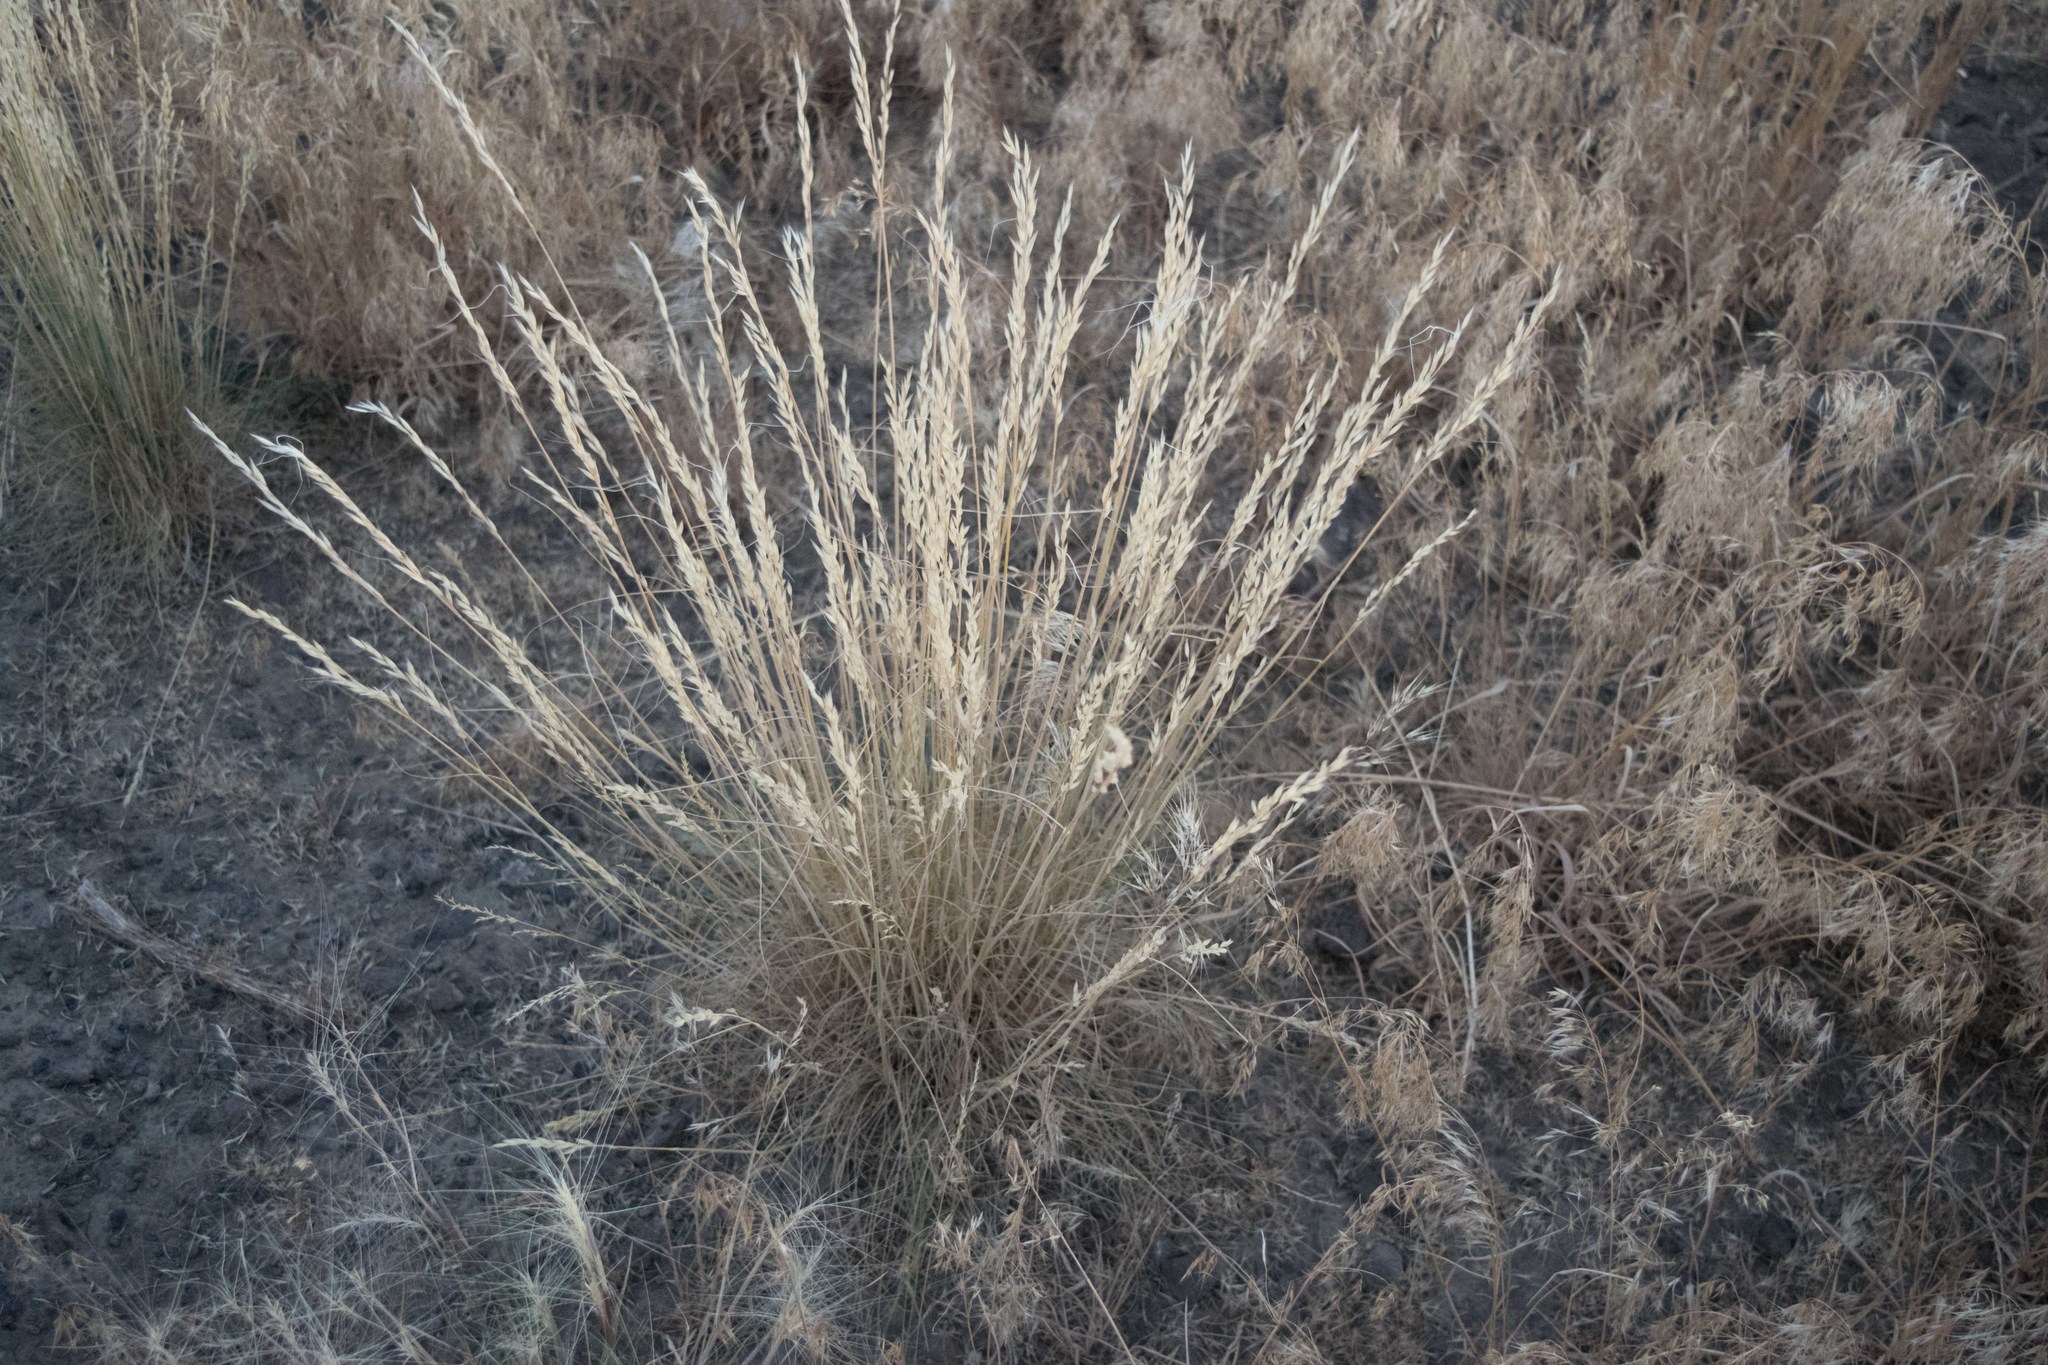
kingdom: Plantae
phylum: Tracheophyta
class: Liliopsida
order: Poales
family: Poaceae
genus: Hesperostipa
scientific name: Hesperostipa comata
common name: Needle-and-thread grass
